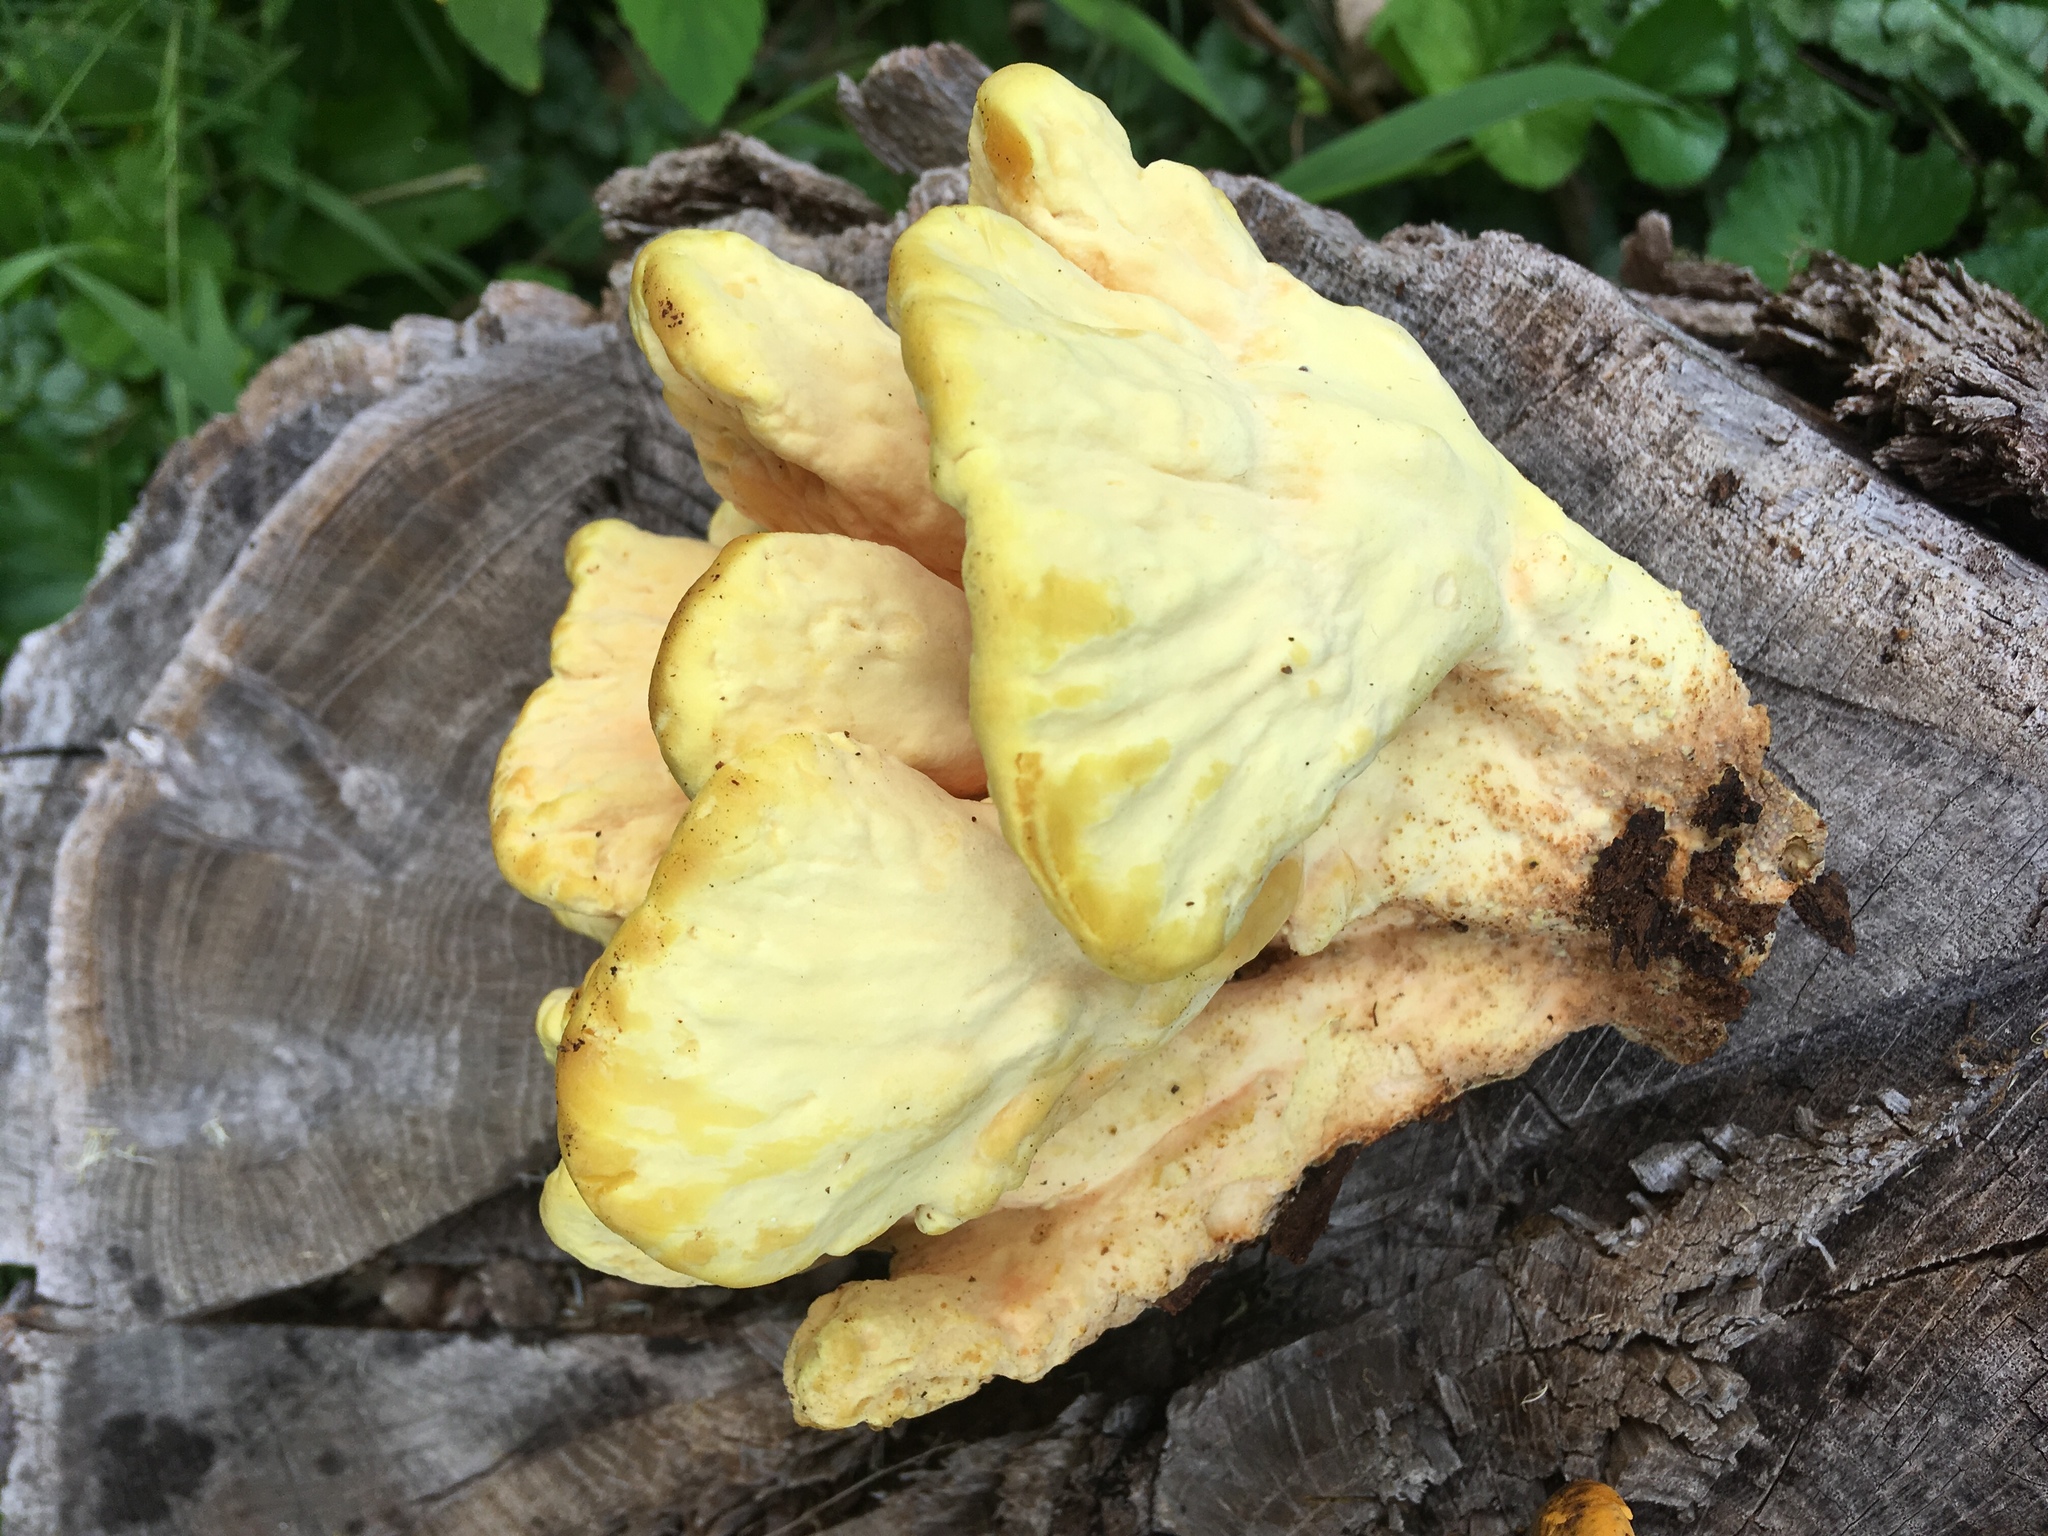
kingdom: Fungi
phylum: Basidiomycota
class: Agaricomycetes
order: Polyporales
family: Laetiporaceae
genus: Laetiporus
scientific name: Laetiporus sulphureus
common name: Chicken of the woods
